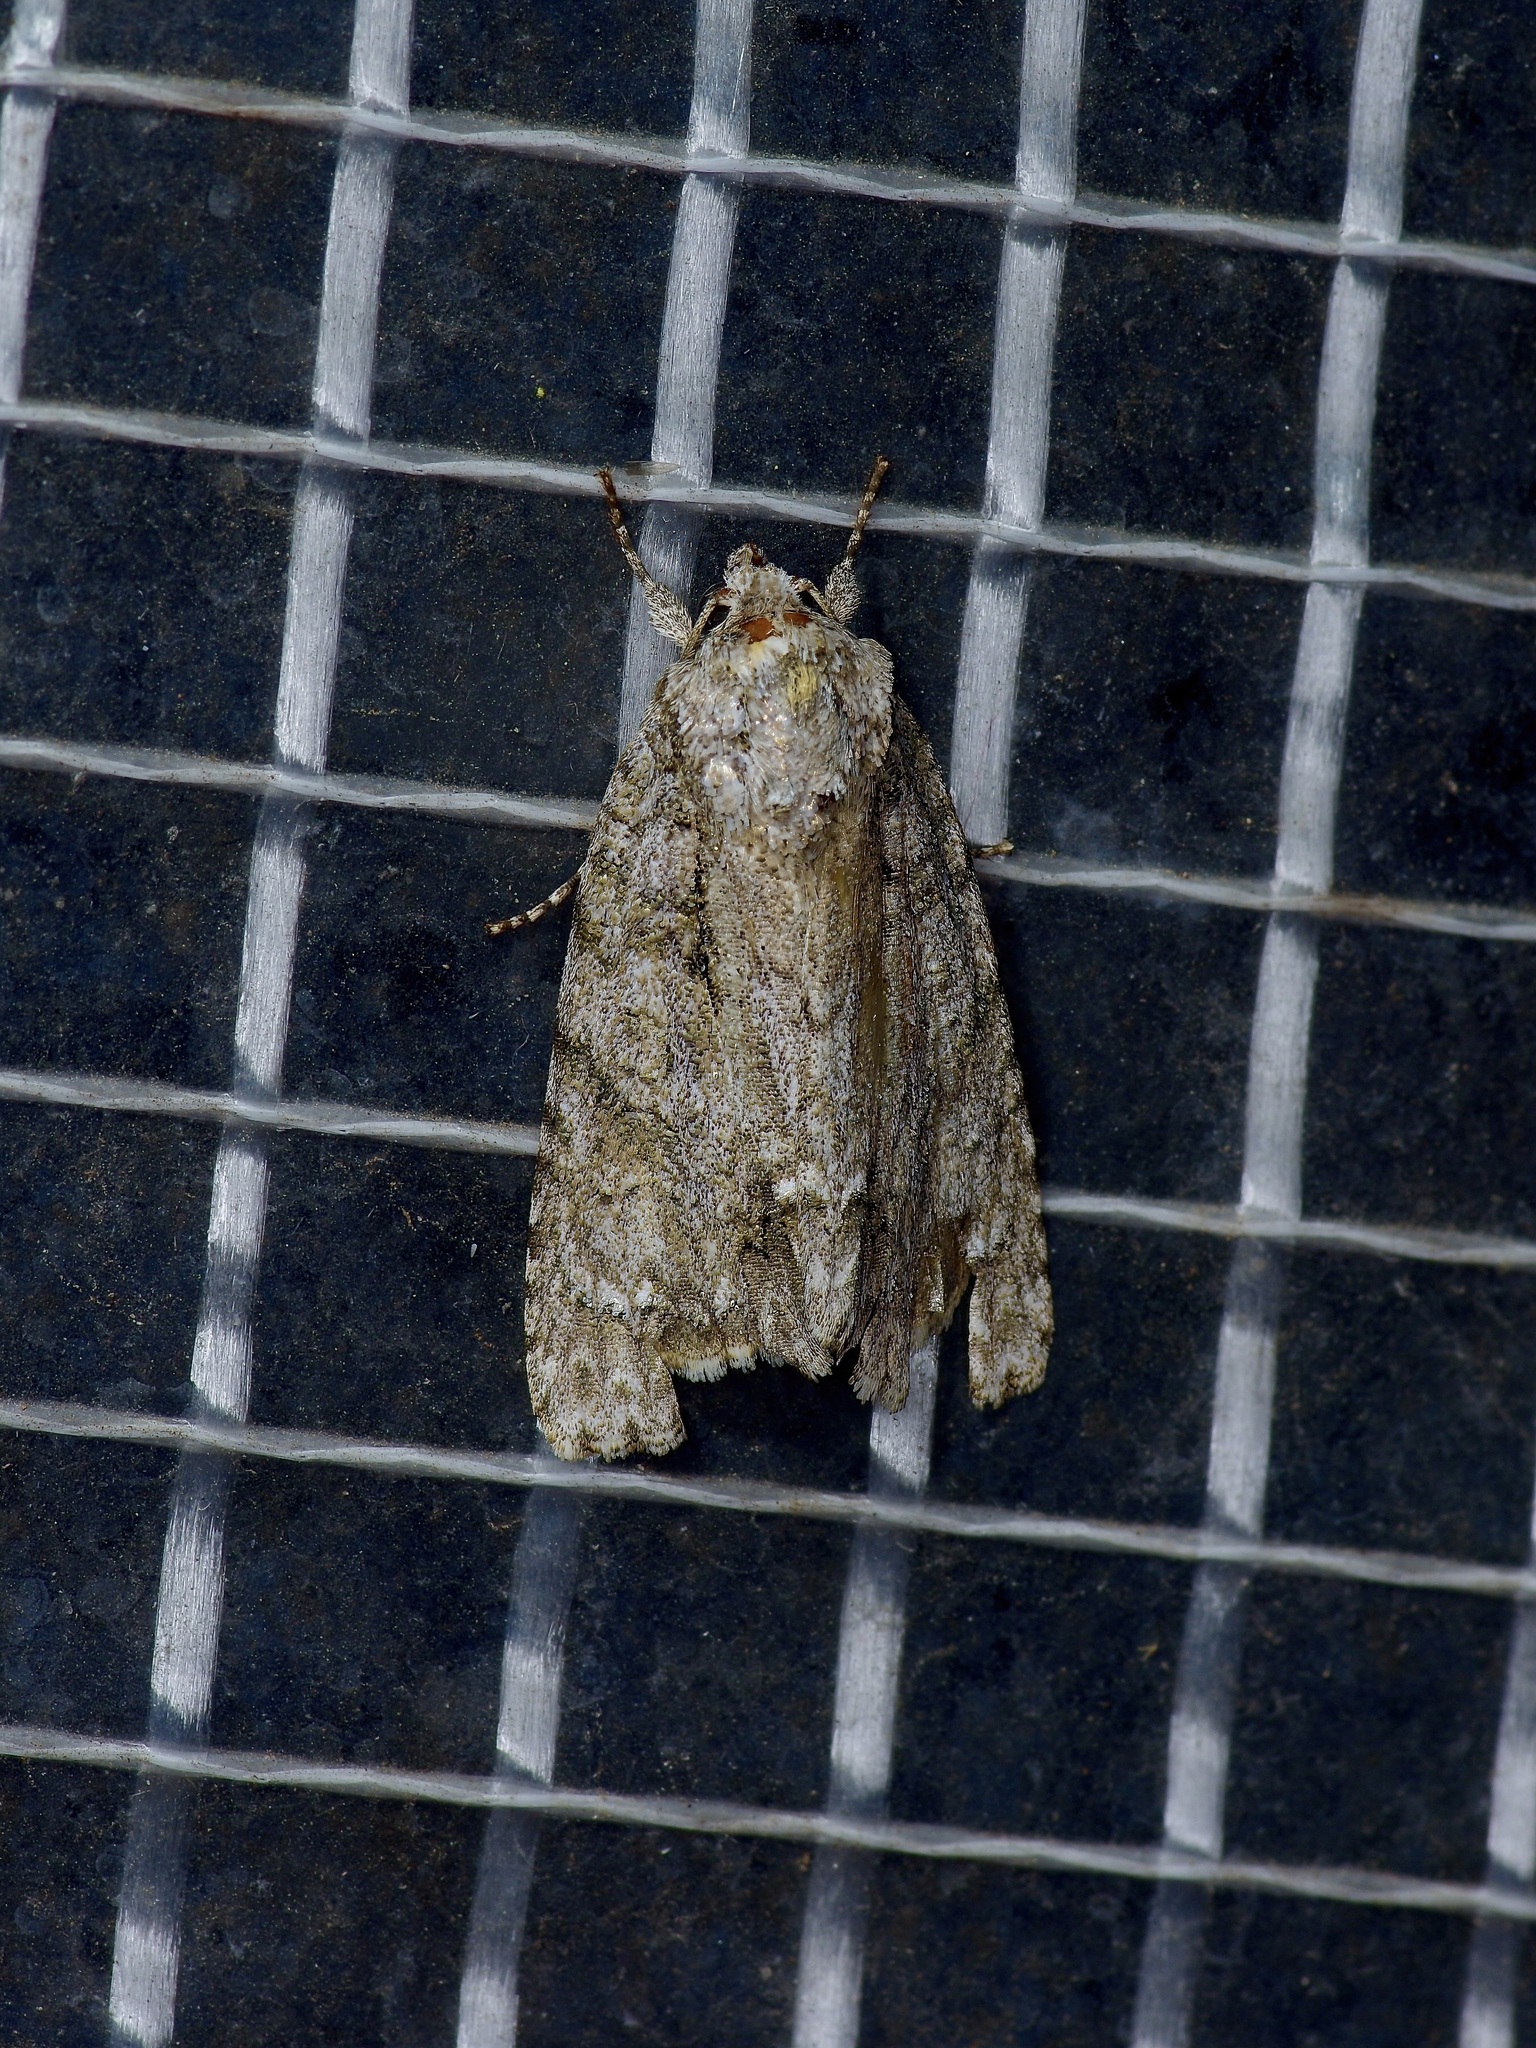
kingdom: Animalia
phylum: Arthropoda
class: Insecta
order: Lepidoptera
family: Noctuidae
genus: Acronicta
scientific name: Acronicta clarescens
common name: Clear dagger
